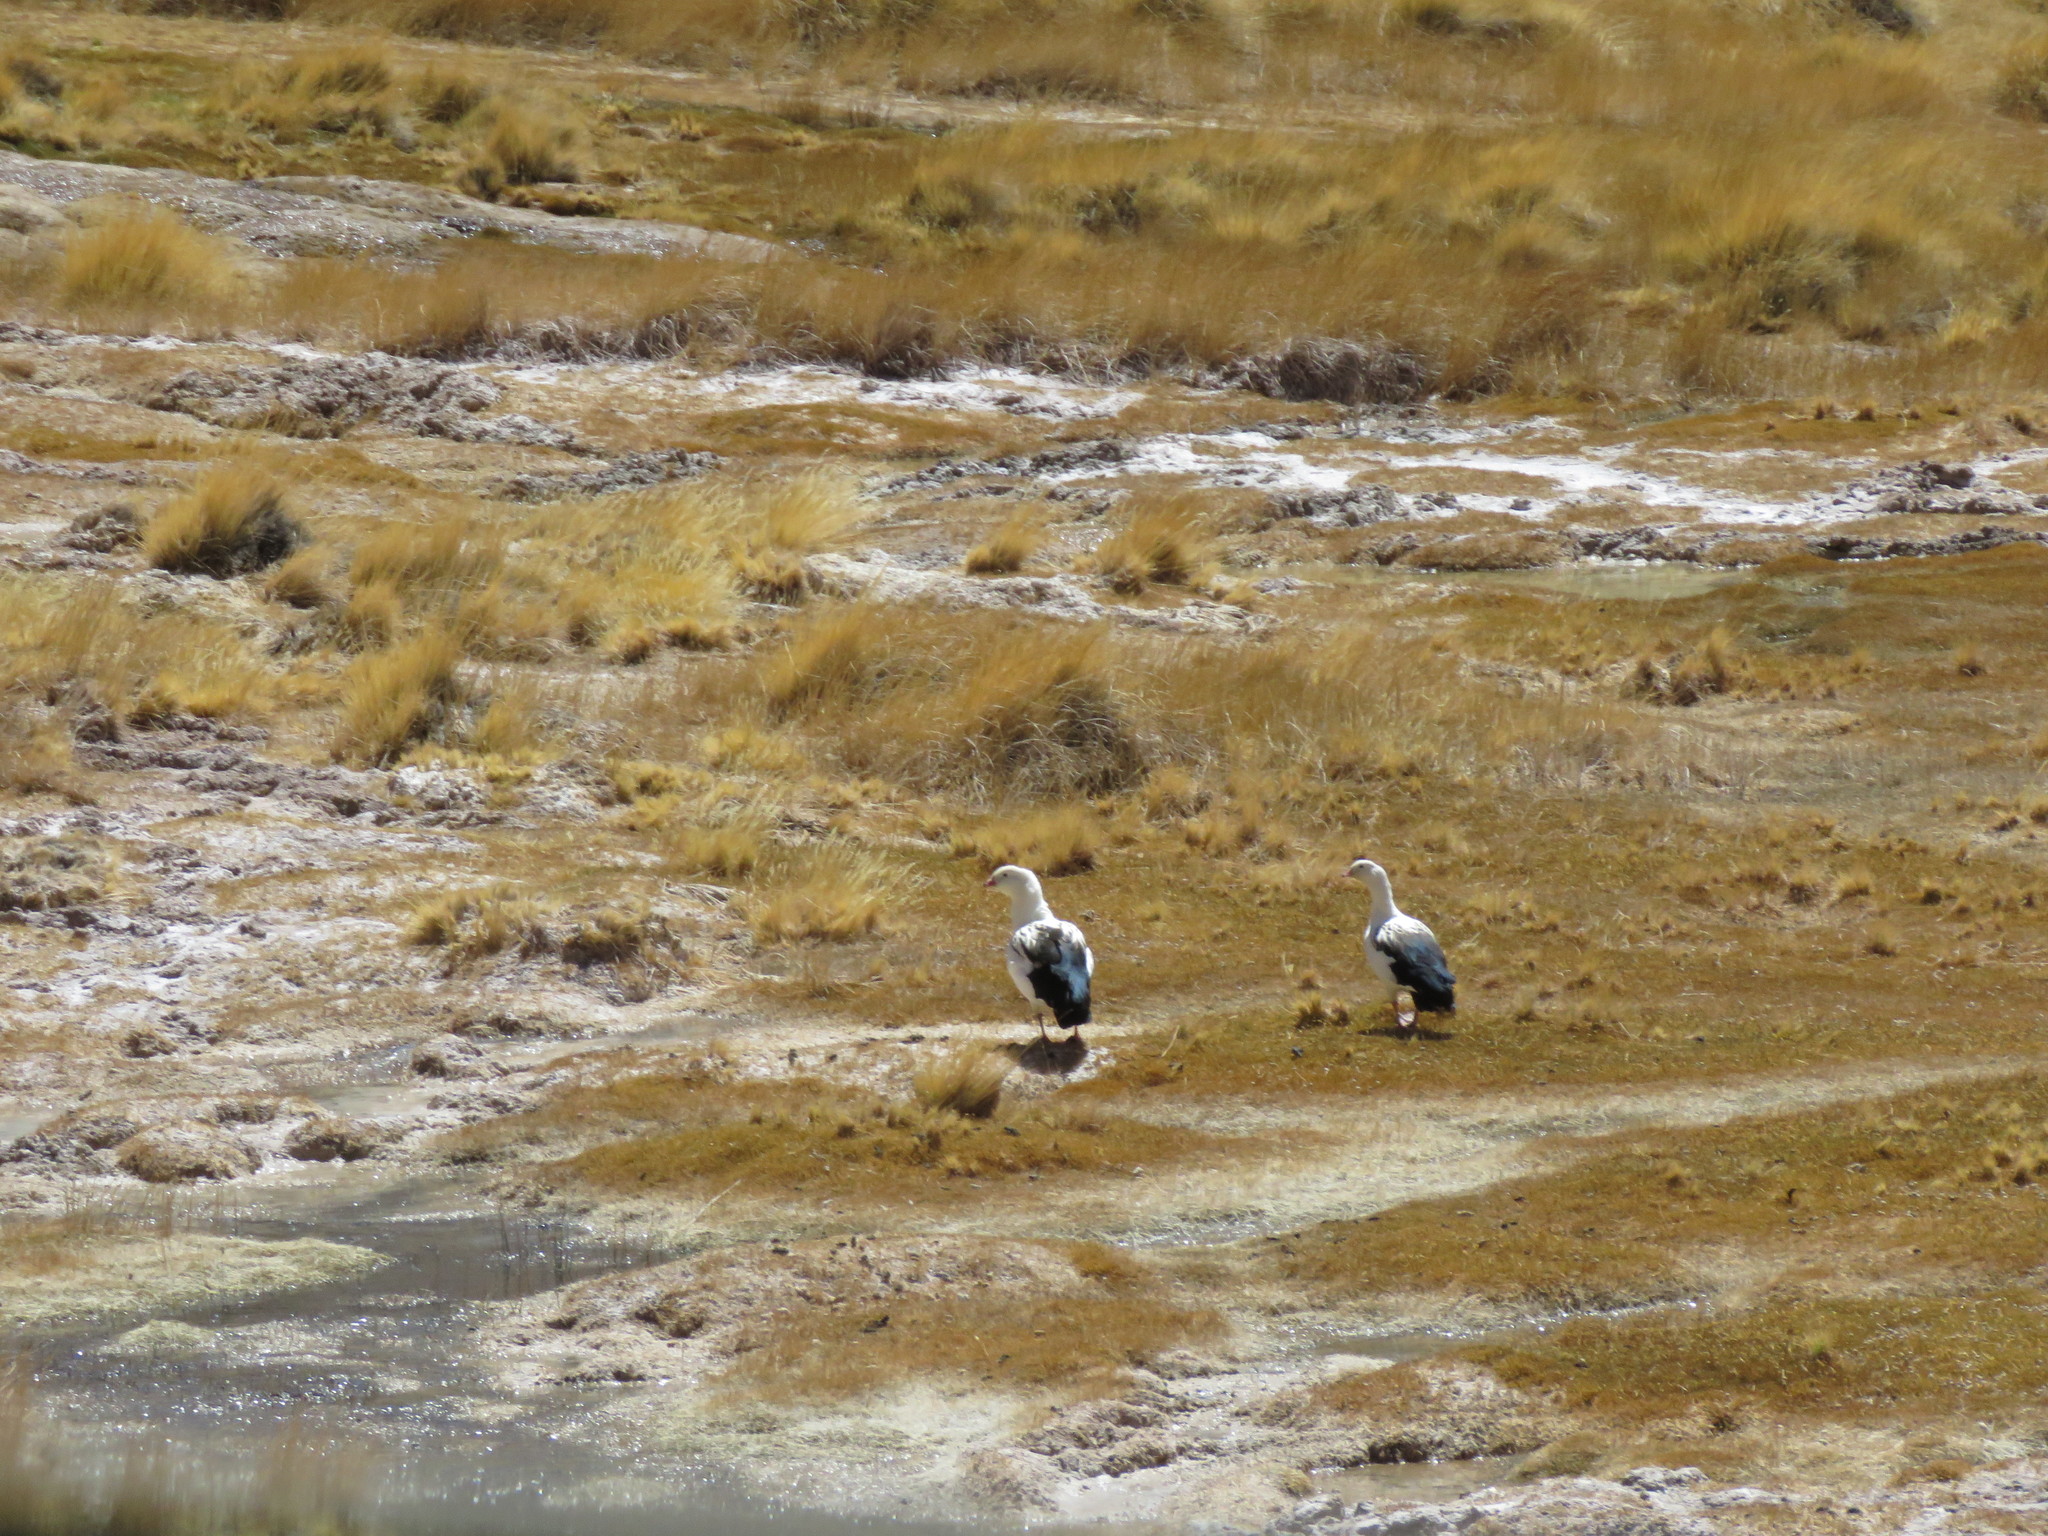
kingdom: Animalia
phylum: Chordata
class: Aves
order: Anseriformes
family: Anatidae
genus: Chloephaga
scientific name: Chloephaga melanoptera
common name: Andean goose
